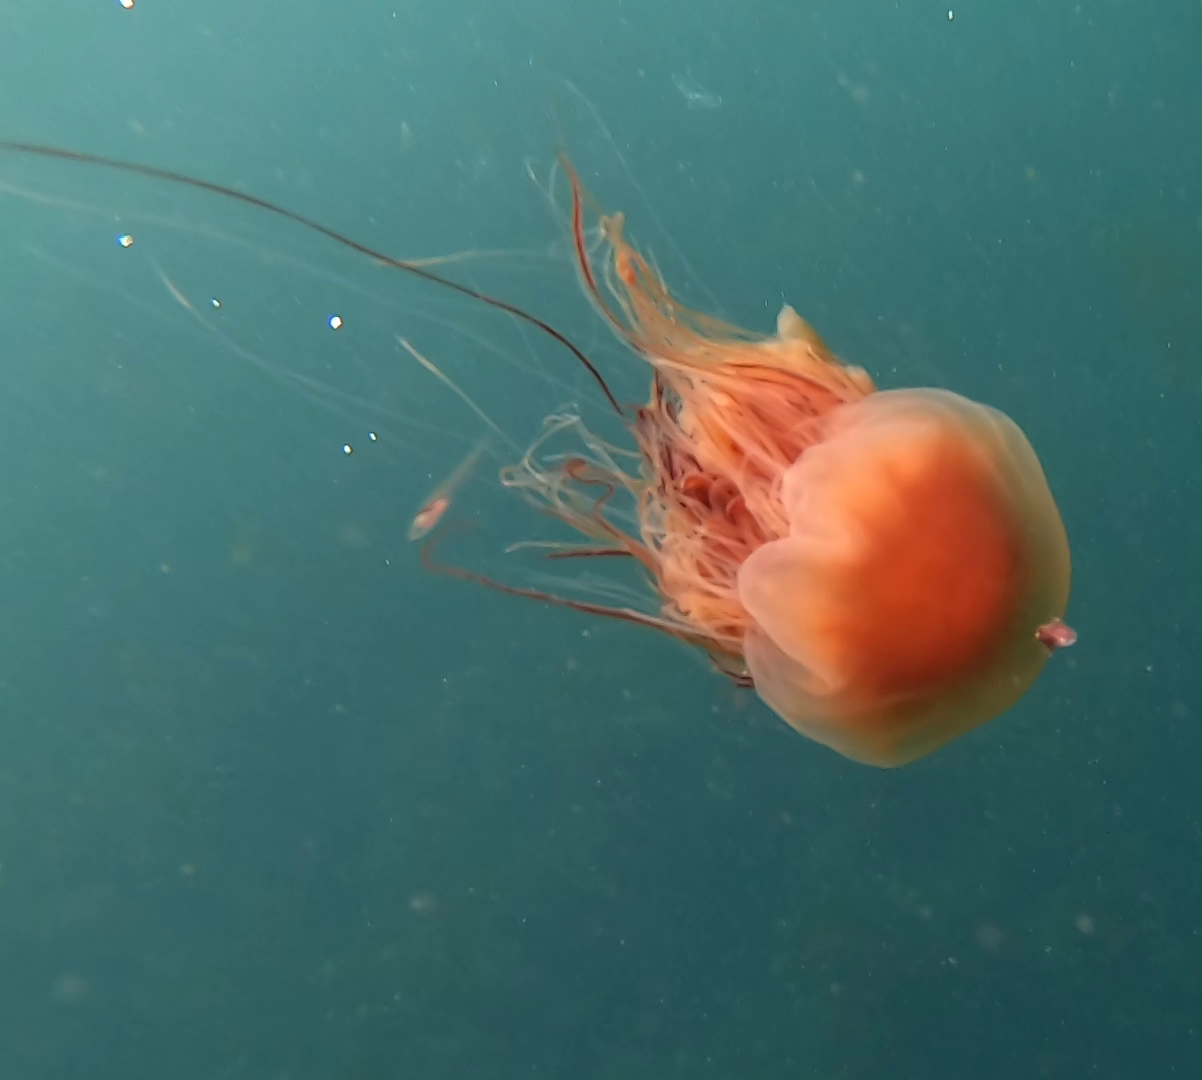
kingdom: Animalia
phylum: Cnidaria
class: Scyphozoa
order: Semaeostomeae
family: Cyaneidae
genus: Cyanea
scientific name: Cyanea ferruginea
